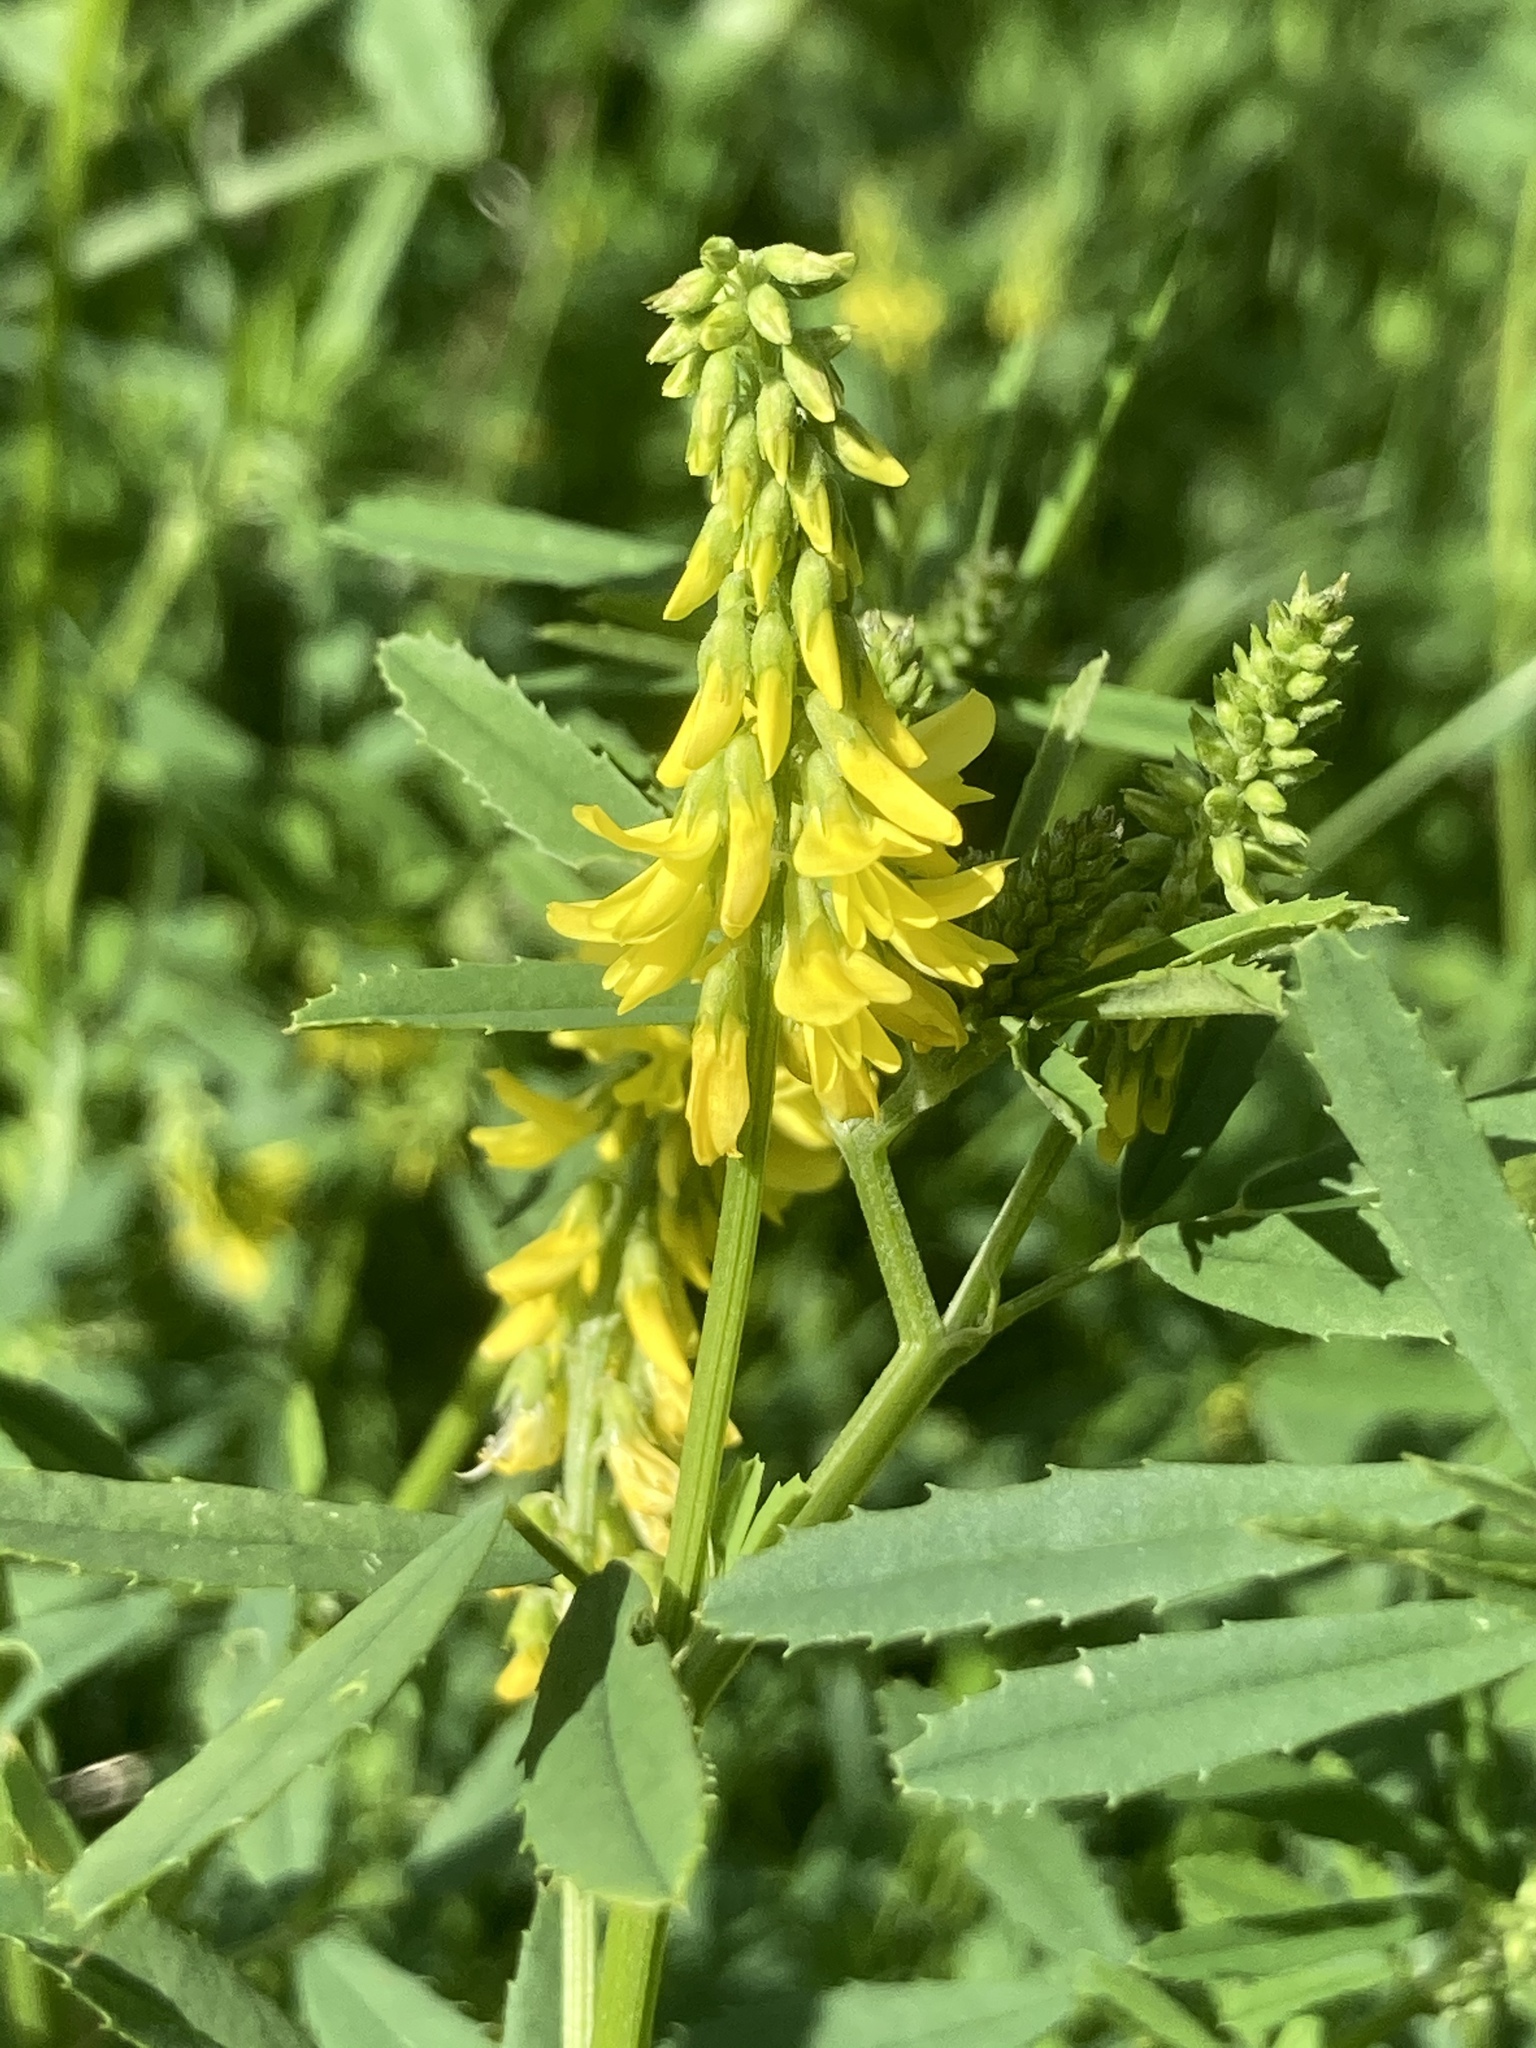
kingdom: Plantae
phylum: Tracheophyta
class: Magnoliopsida
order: Fabales
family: Fabaceae
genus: Melilotus
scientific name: Melilotus officinalis
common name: Sweetclover
